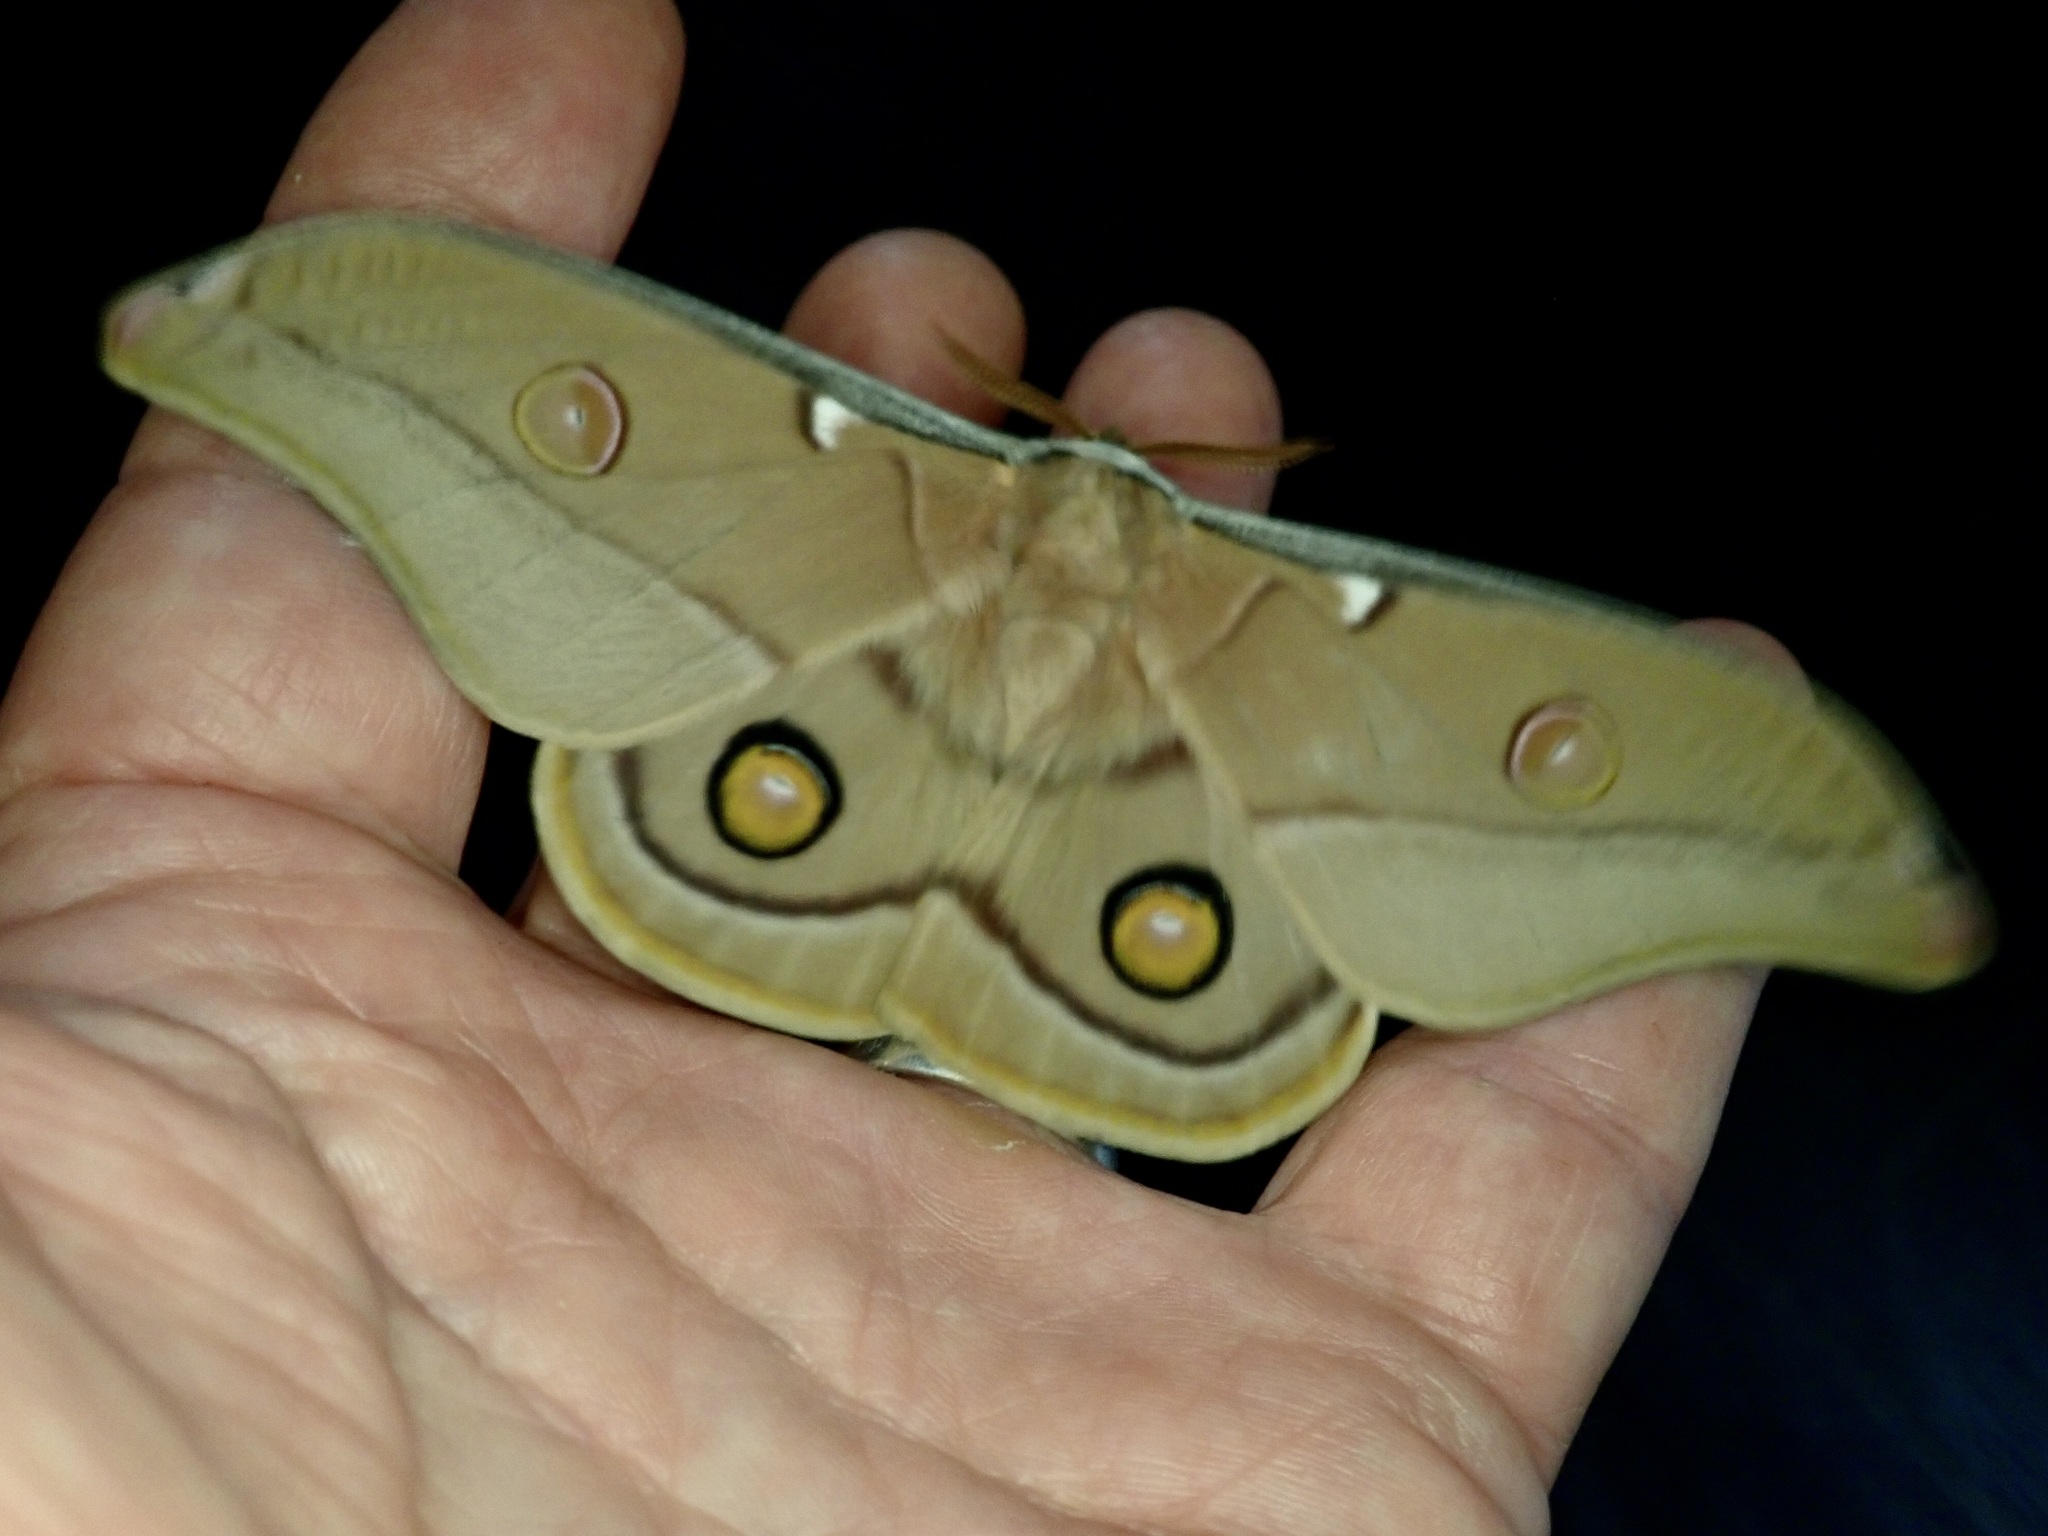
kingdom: Animalia
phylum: Arthropoda
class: Insecta
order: Lepidoptera
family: Saturniidae
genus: Opodiphthera
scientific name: Opodiphthera
